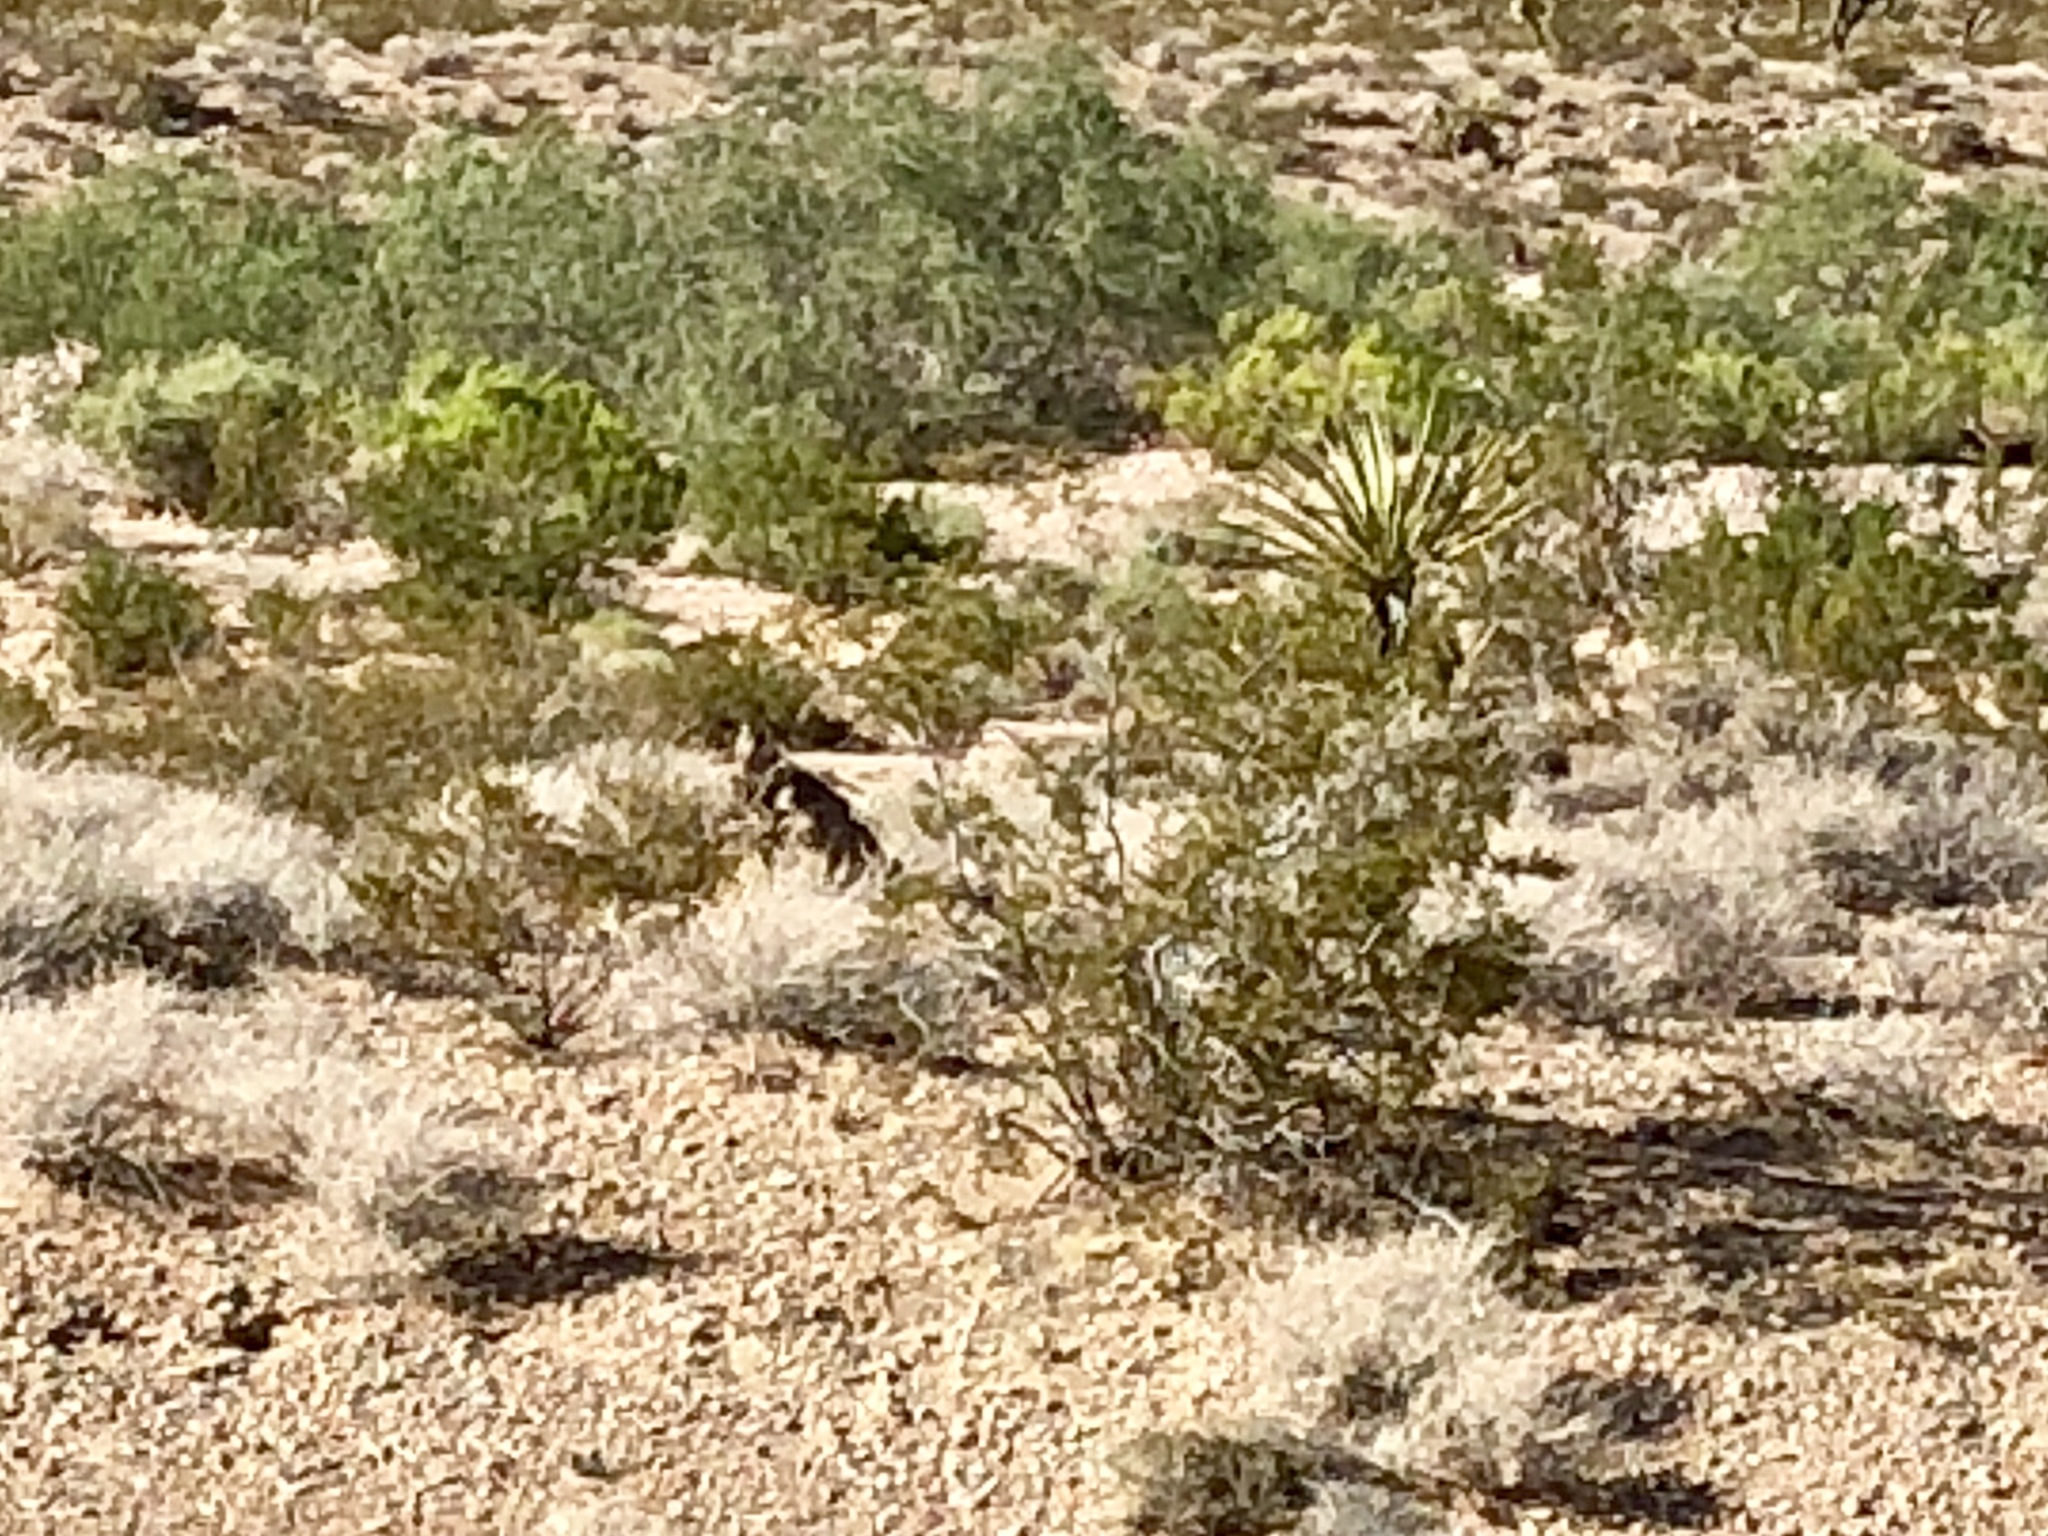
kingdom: Plantae
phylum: Tracheophyta
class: Magnoliopsida
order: Zygophyllales
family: Zygophyllaceae
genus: Larrea
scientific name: Larrea tridentata
